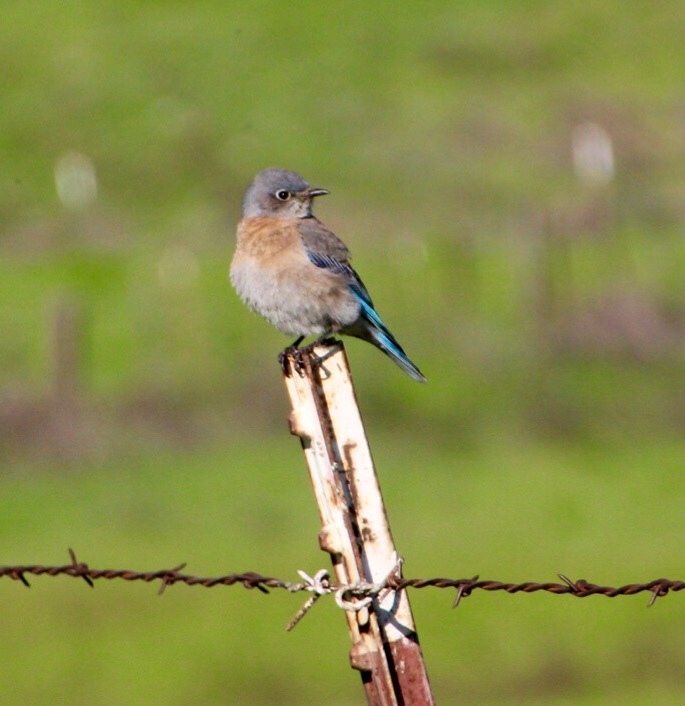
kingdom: Animalia
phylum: Chordata
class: Aves
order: Passeriformes
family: Turdidae
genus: Sialia
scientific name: Sialia mexicana
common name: Western bluebird
